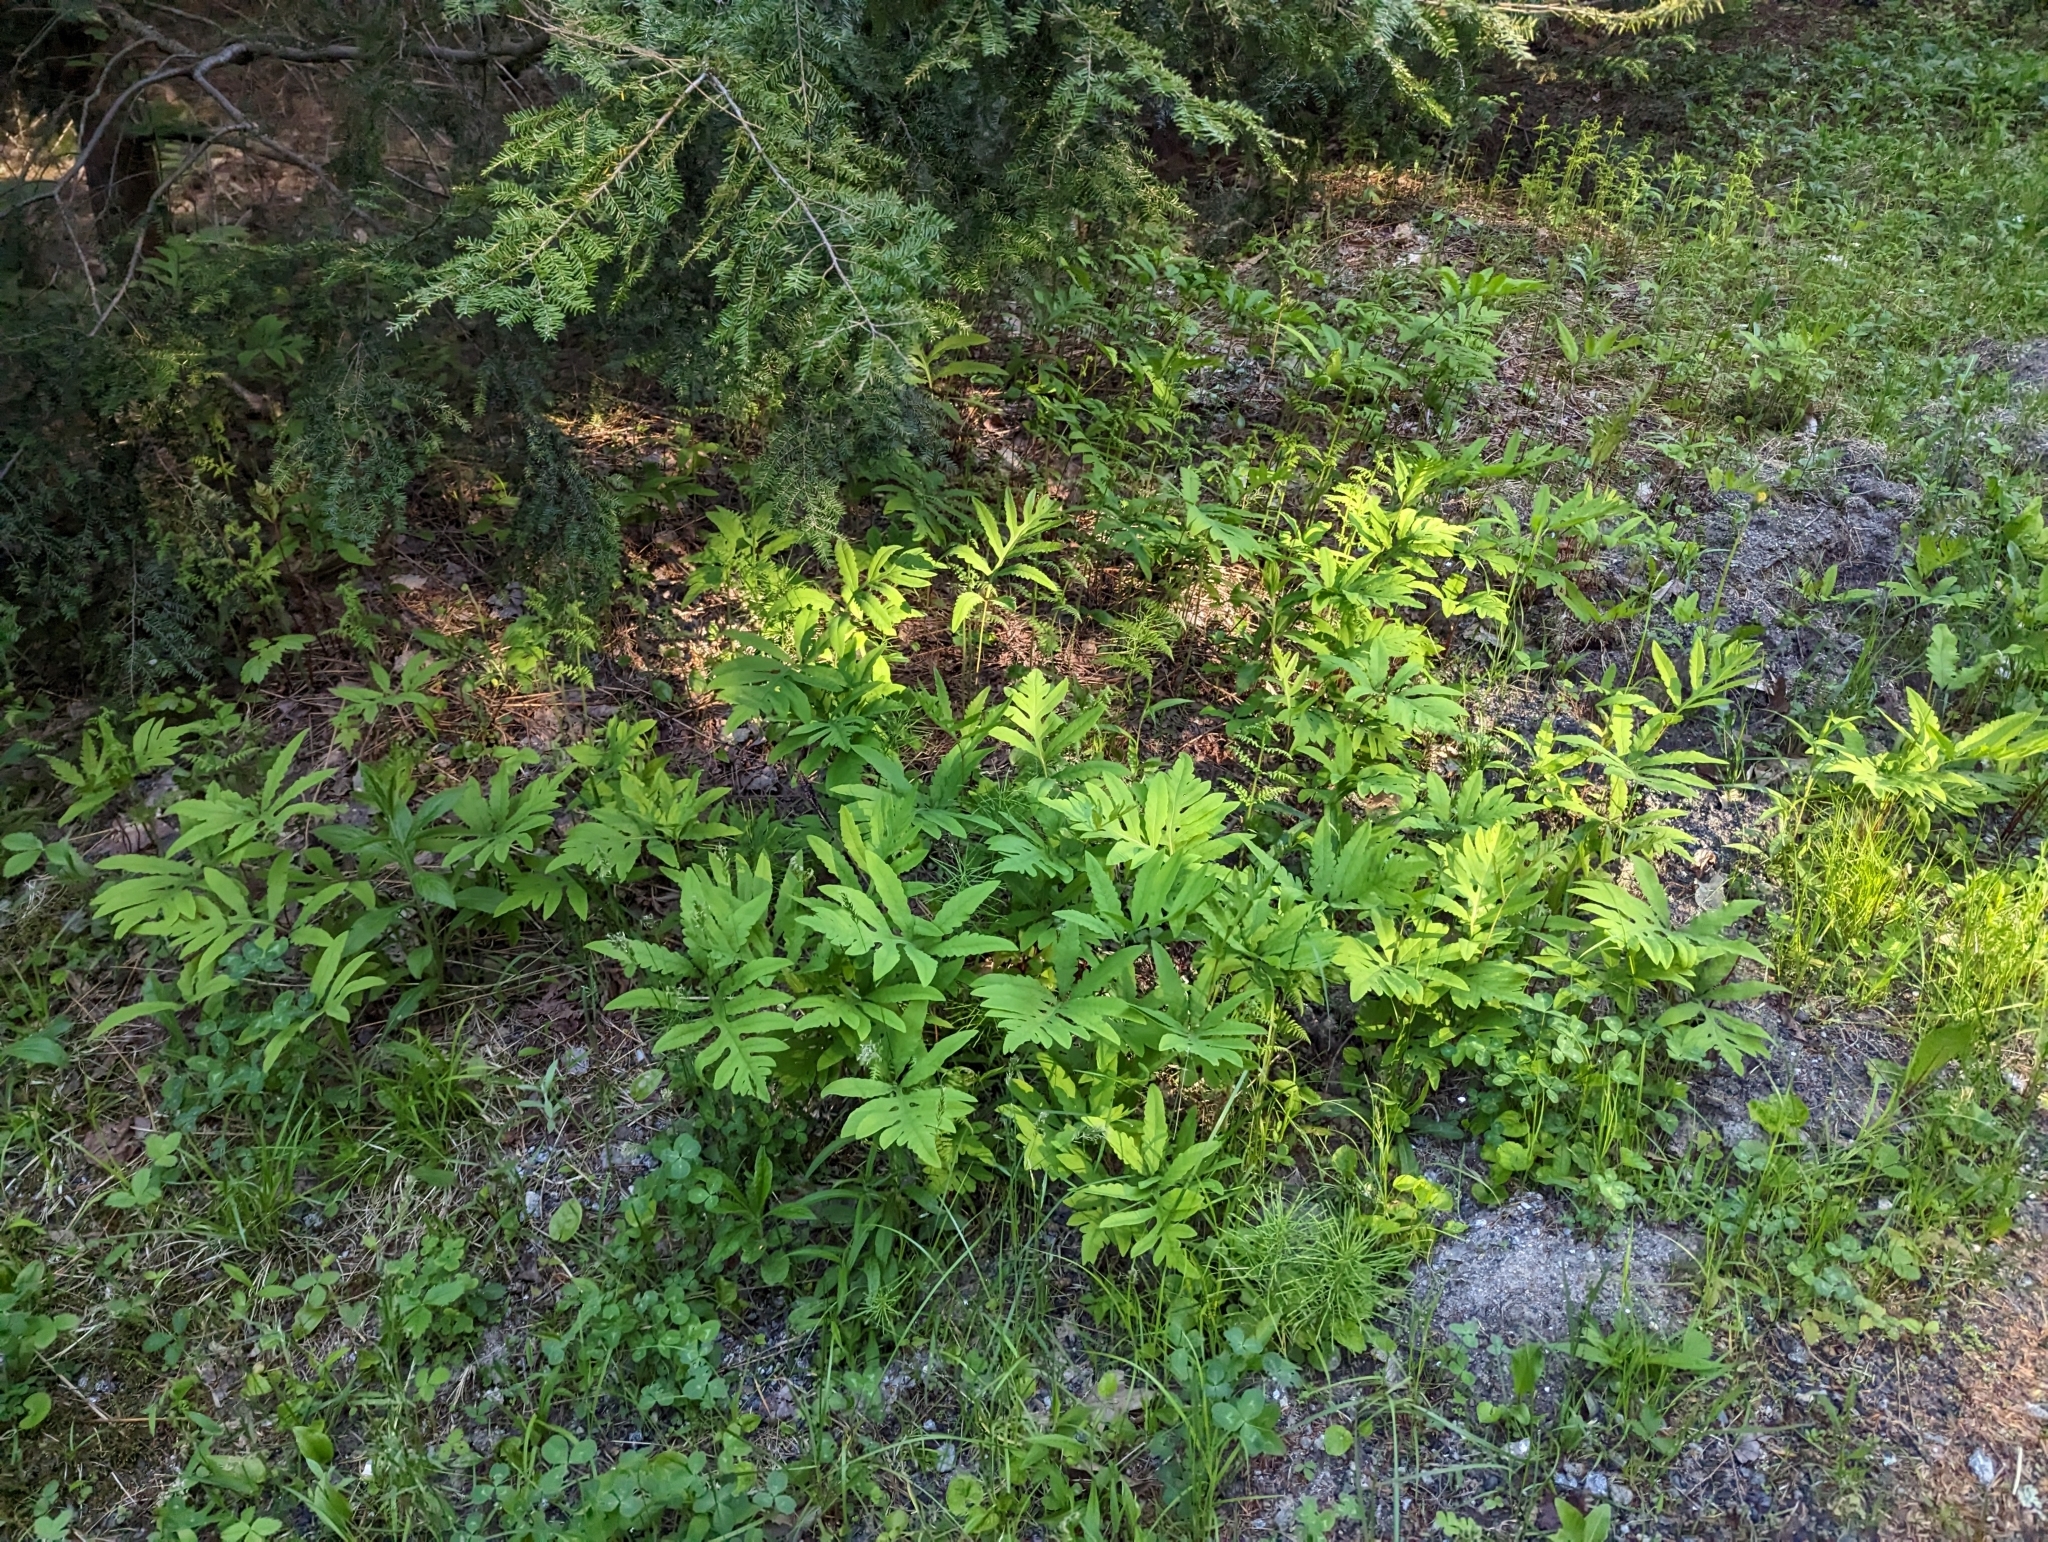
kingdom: Plantae
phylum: Tracheophyta
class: Polypodiopsida
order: Polypodiales
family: Onocleaceae
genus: Onoclea
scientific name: Onoclea sensibilis
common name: Sensitive fern
